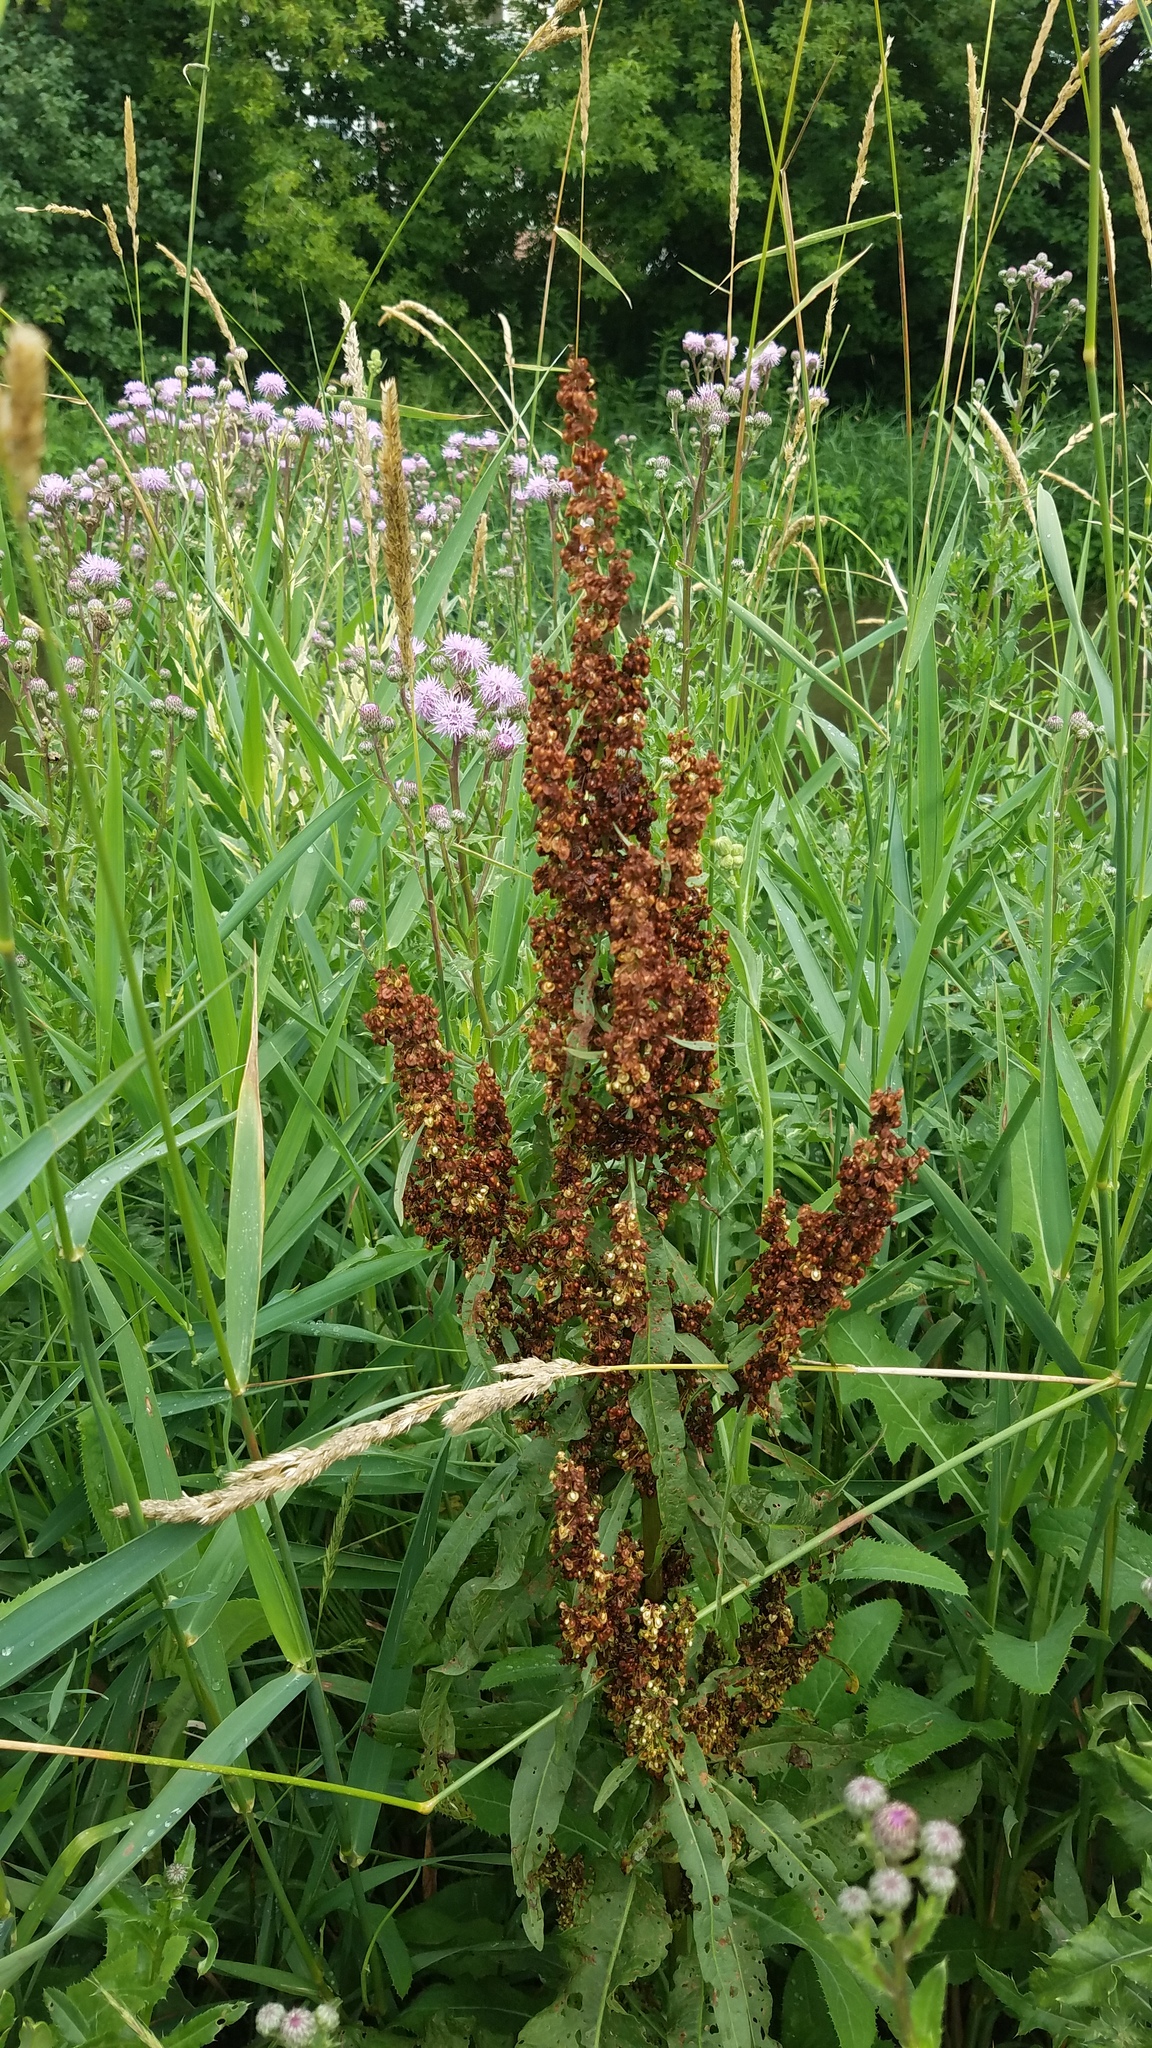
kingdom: Plantae
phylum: Tracheophyta
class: Magnoliopsida
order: Caryophyllales
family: Polygonaceae
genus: Rumex
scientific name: Rumex crispus
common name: Curled dock
